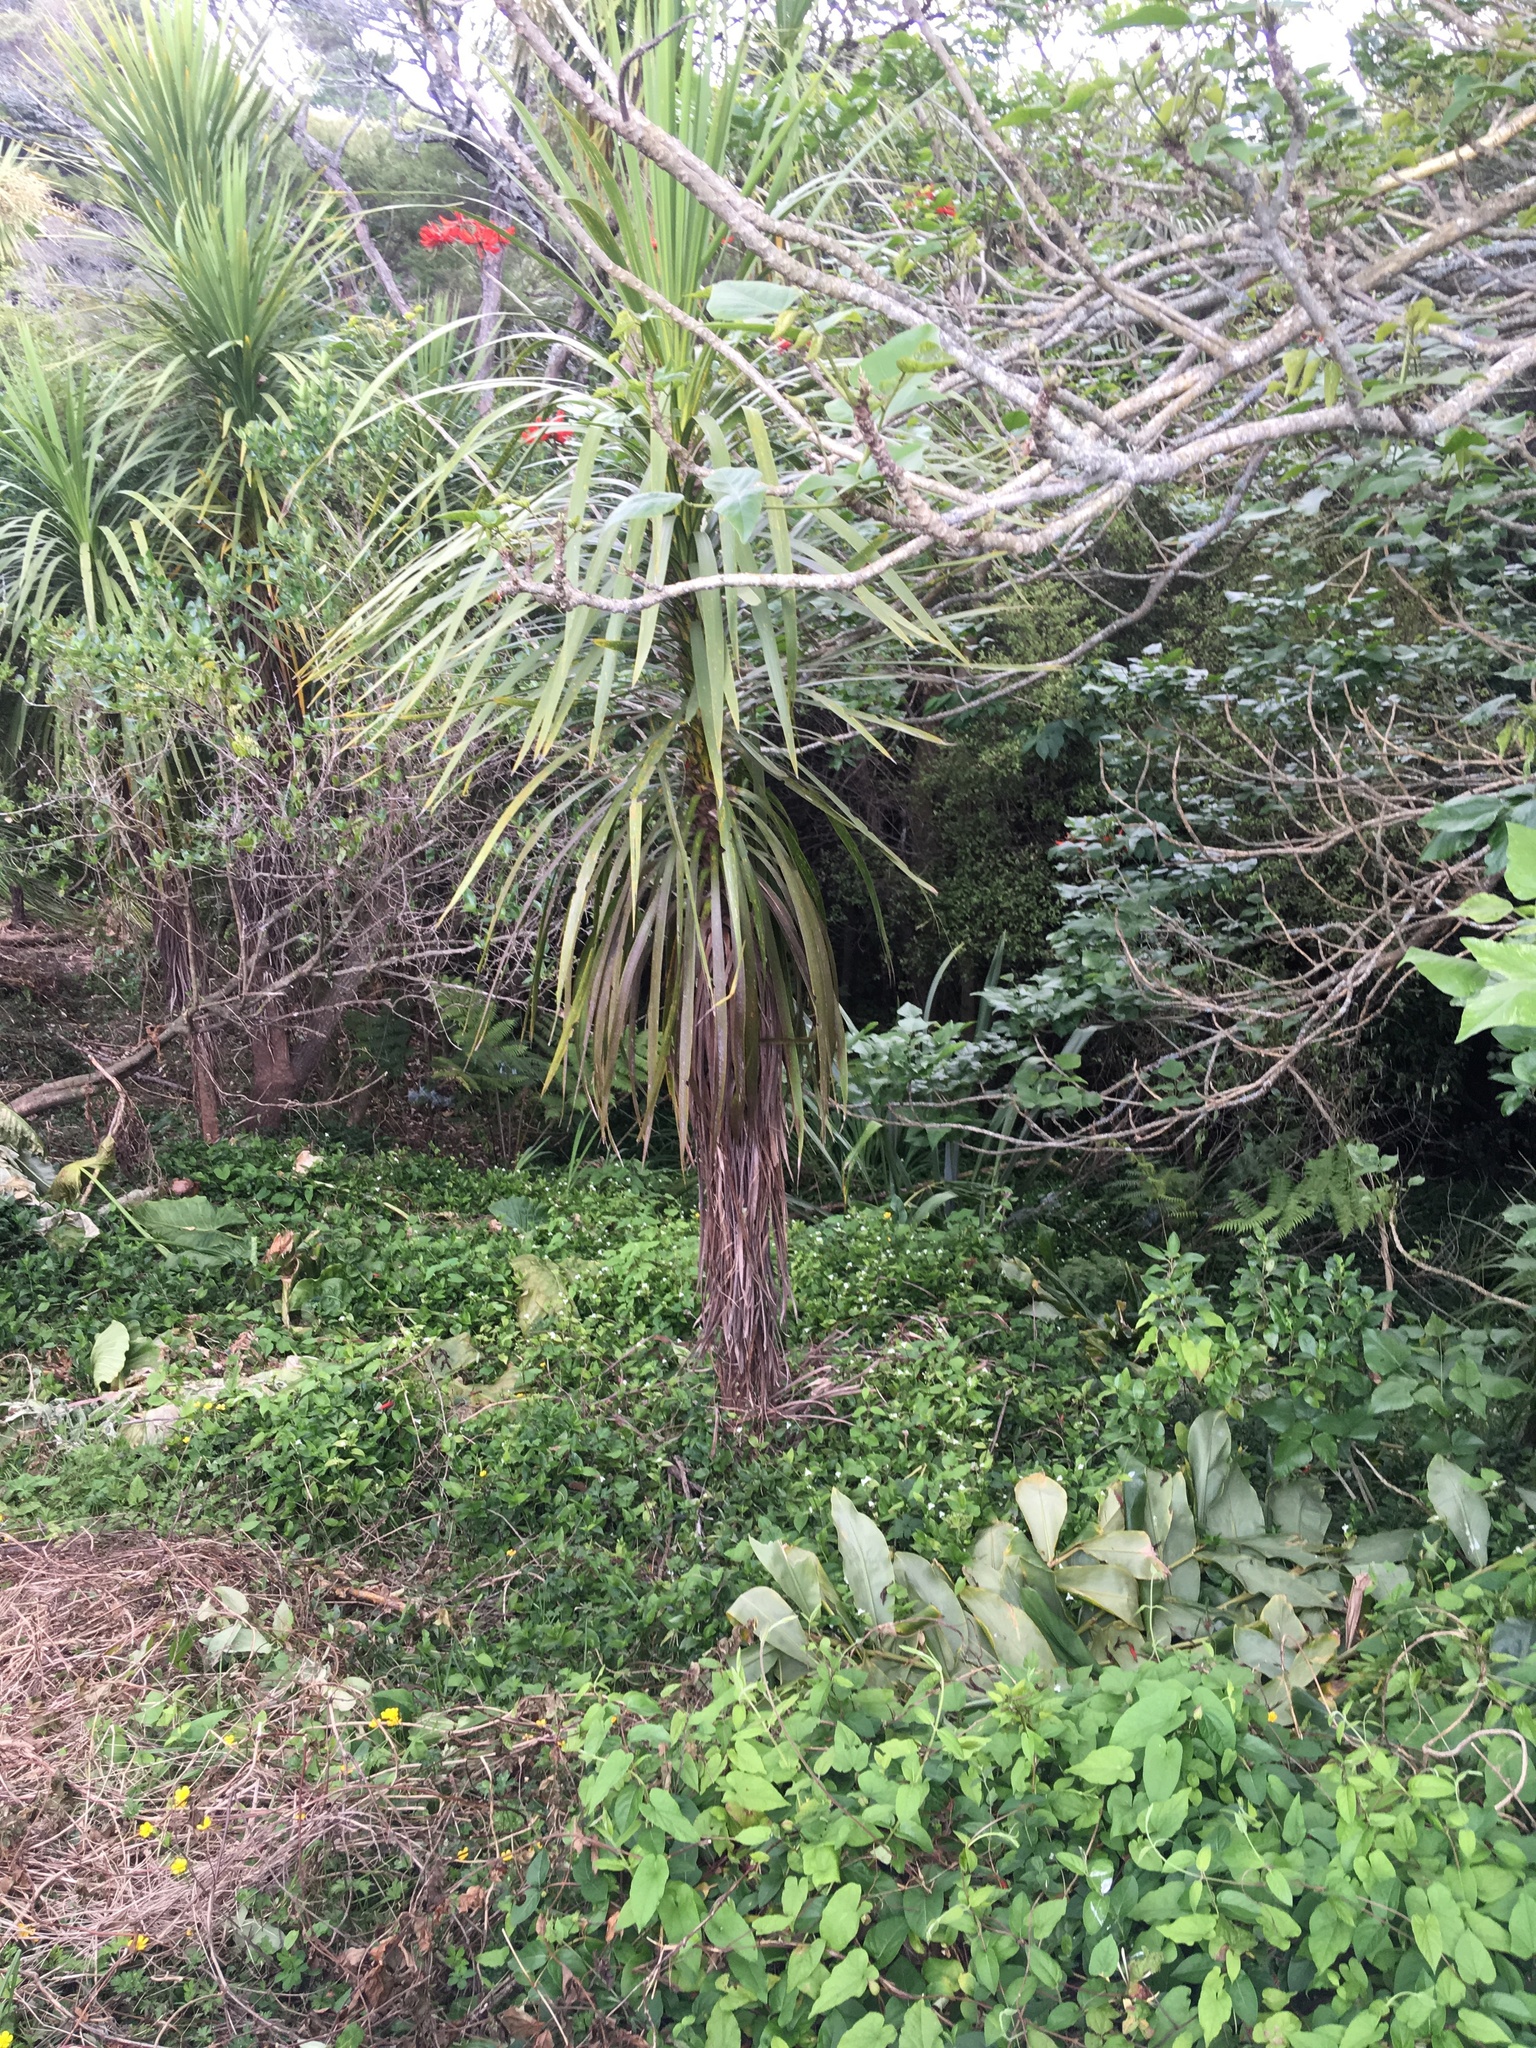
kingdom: Plantae
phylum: Tracheophyta
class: Liliopsida
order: Asparagales
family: Asparagaceae
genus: Cordyline
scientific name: Cordyline australis
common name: Cabbage-palm
